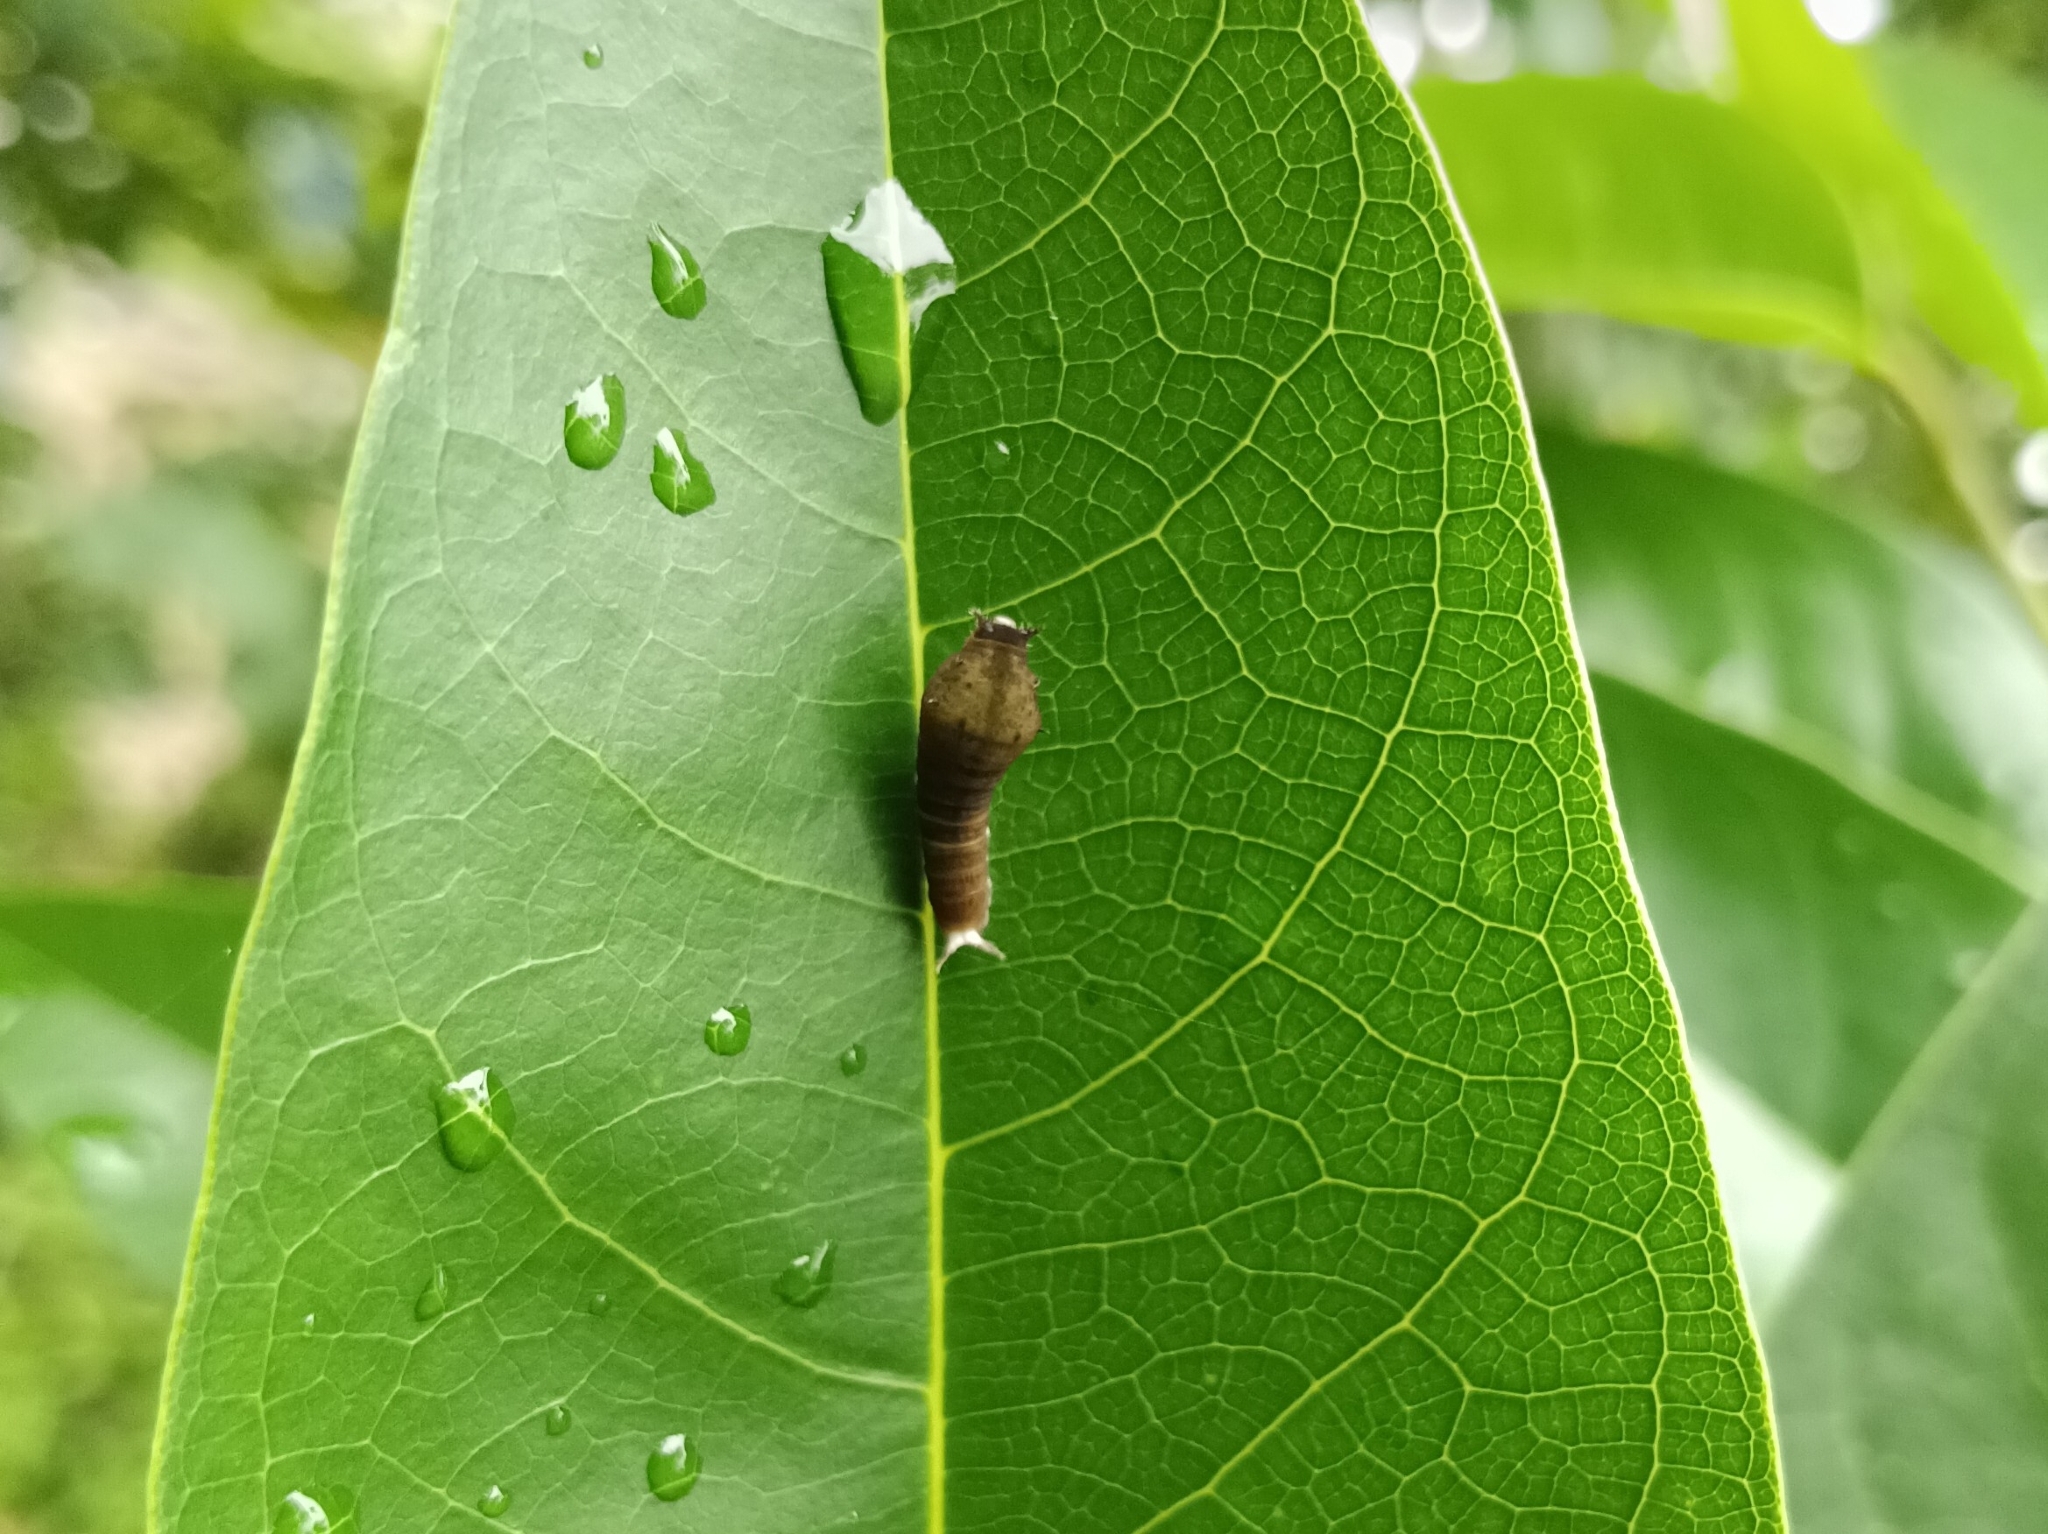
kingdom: Animalia
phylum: Arthropoda
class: Insecta
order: Lepidoptera
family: Papilionidae
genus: Graphium
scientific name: Graphium doson
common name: Common jay
